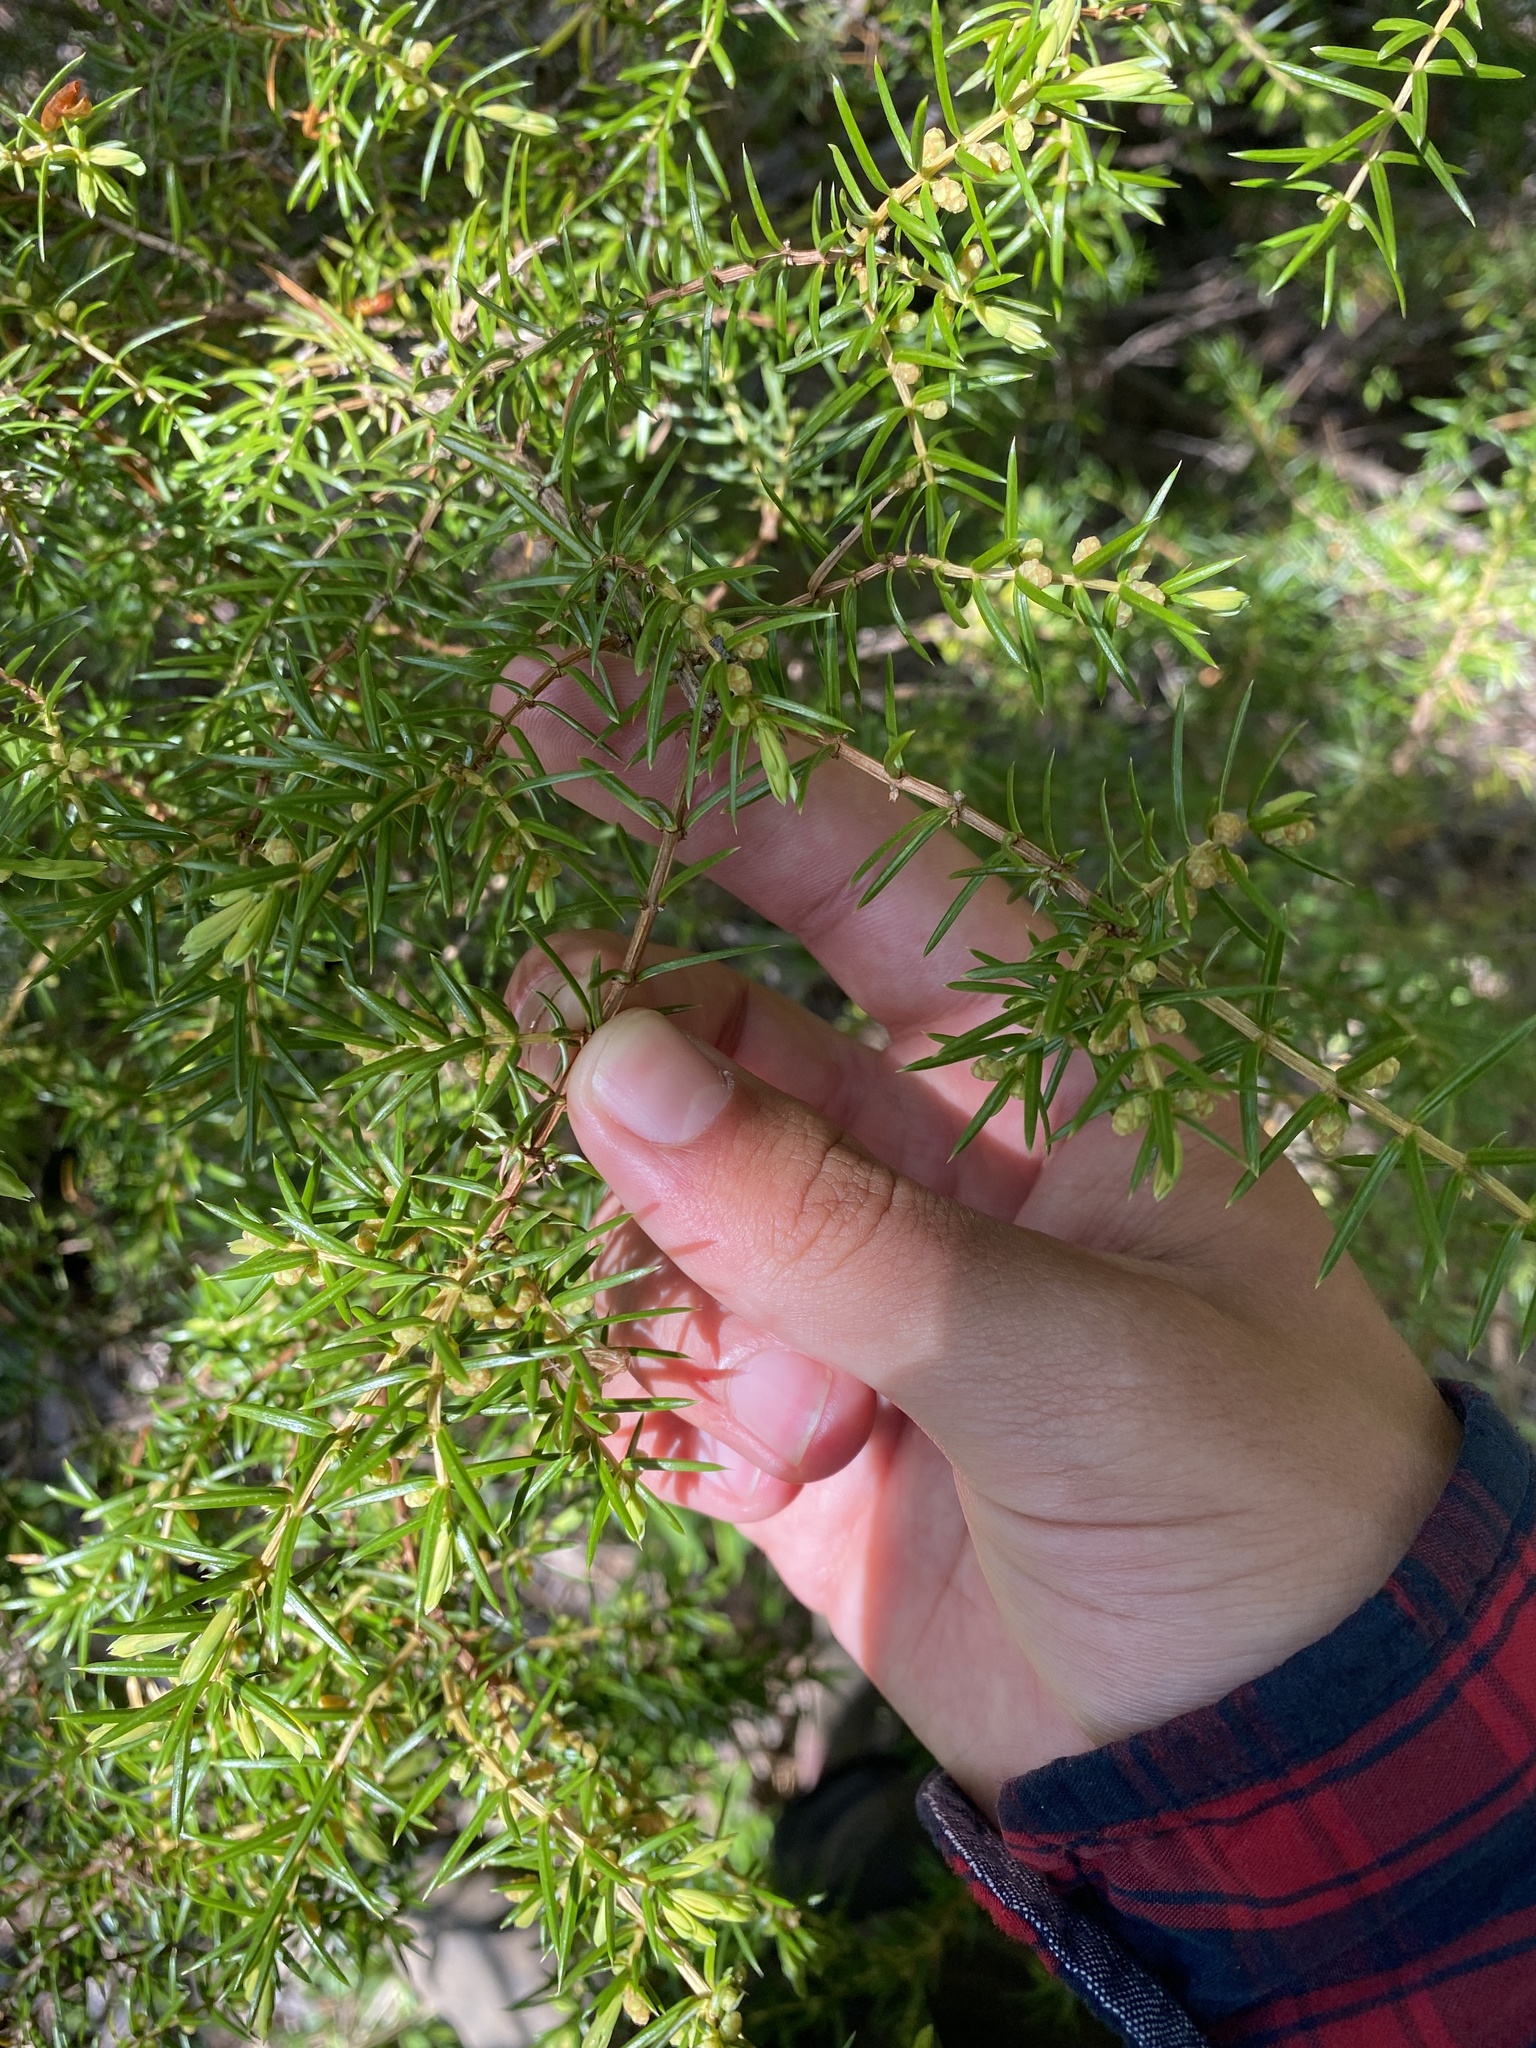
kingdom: Plantae
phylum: Tracheophyta
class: Pinopsida
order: Pinales
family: Cupressaceae
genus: Juniperus
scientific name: Juniperus communis
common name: Common juniper
